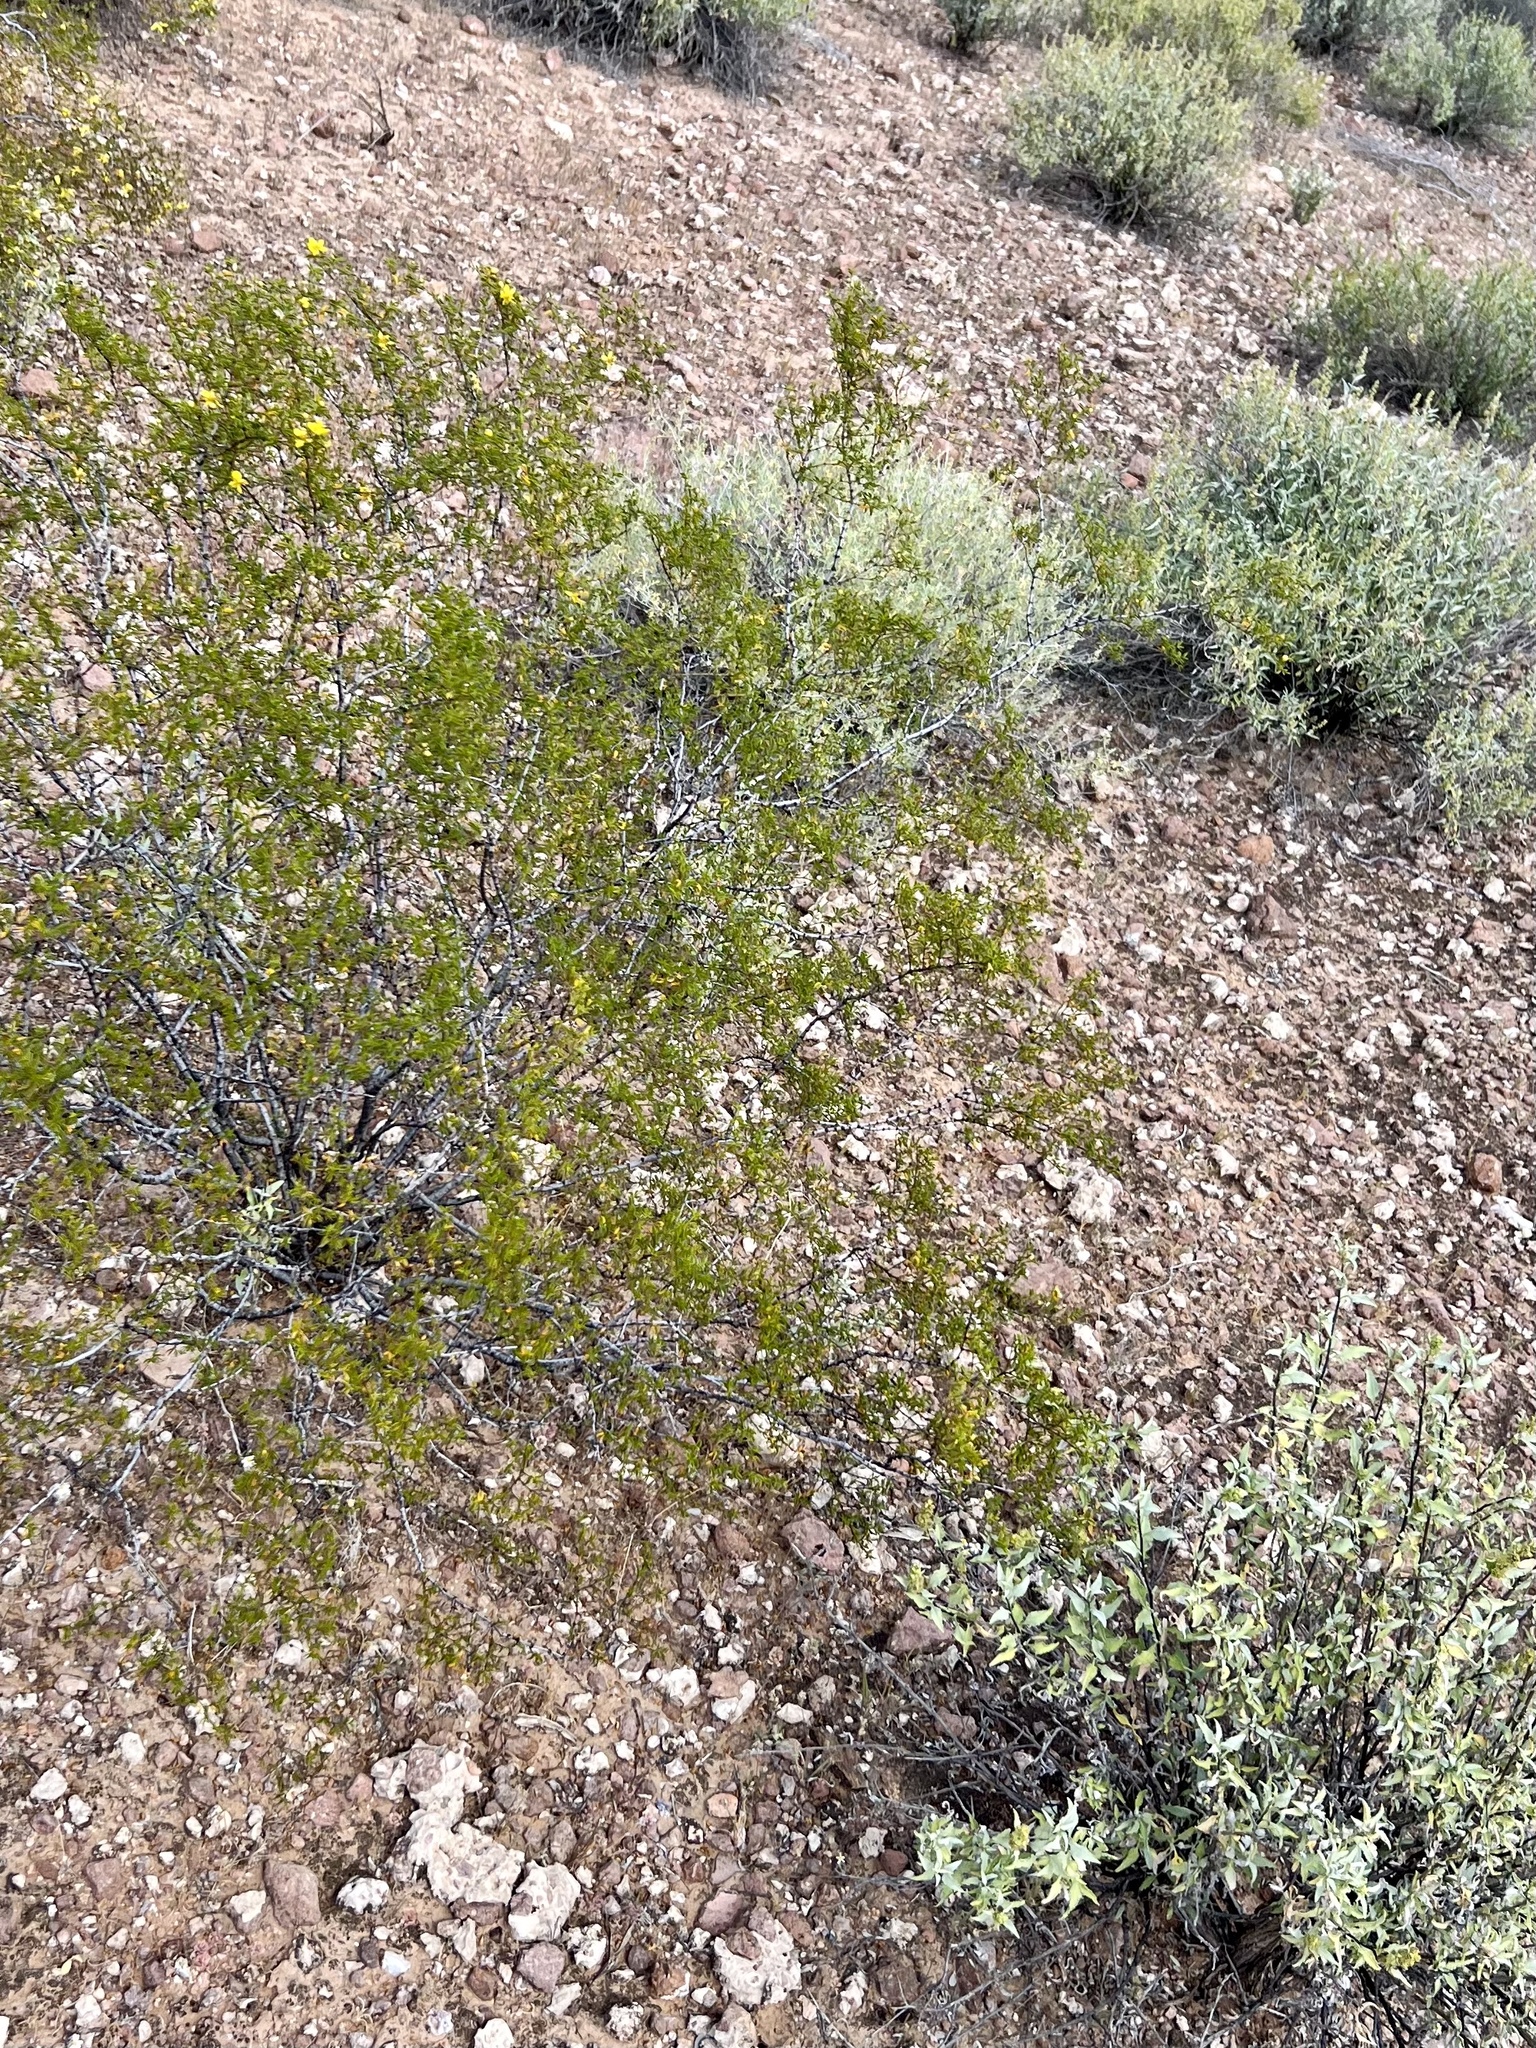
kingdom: Plantae
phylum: Tracheophyta
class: Magnoliopsida
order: Zygophyllales
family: Zygophyllaceae
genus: Larrea
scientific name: Larrea tridentata
